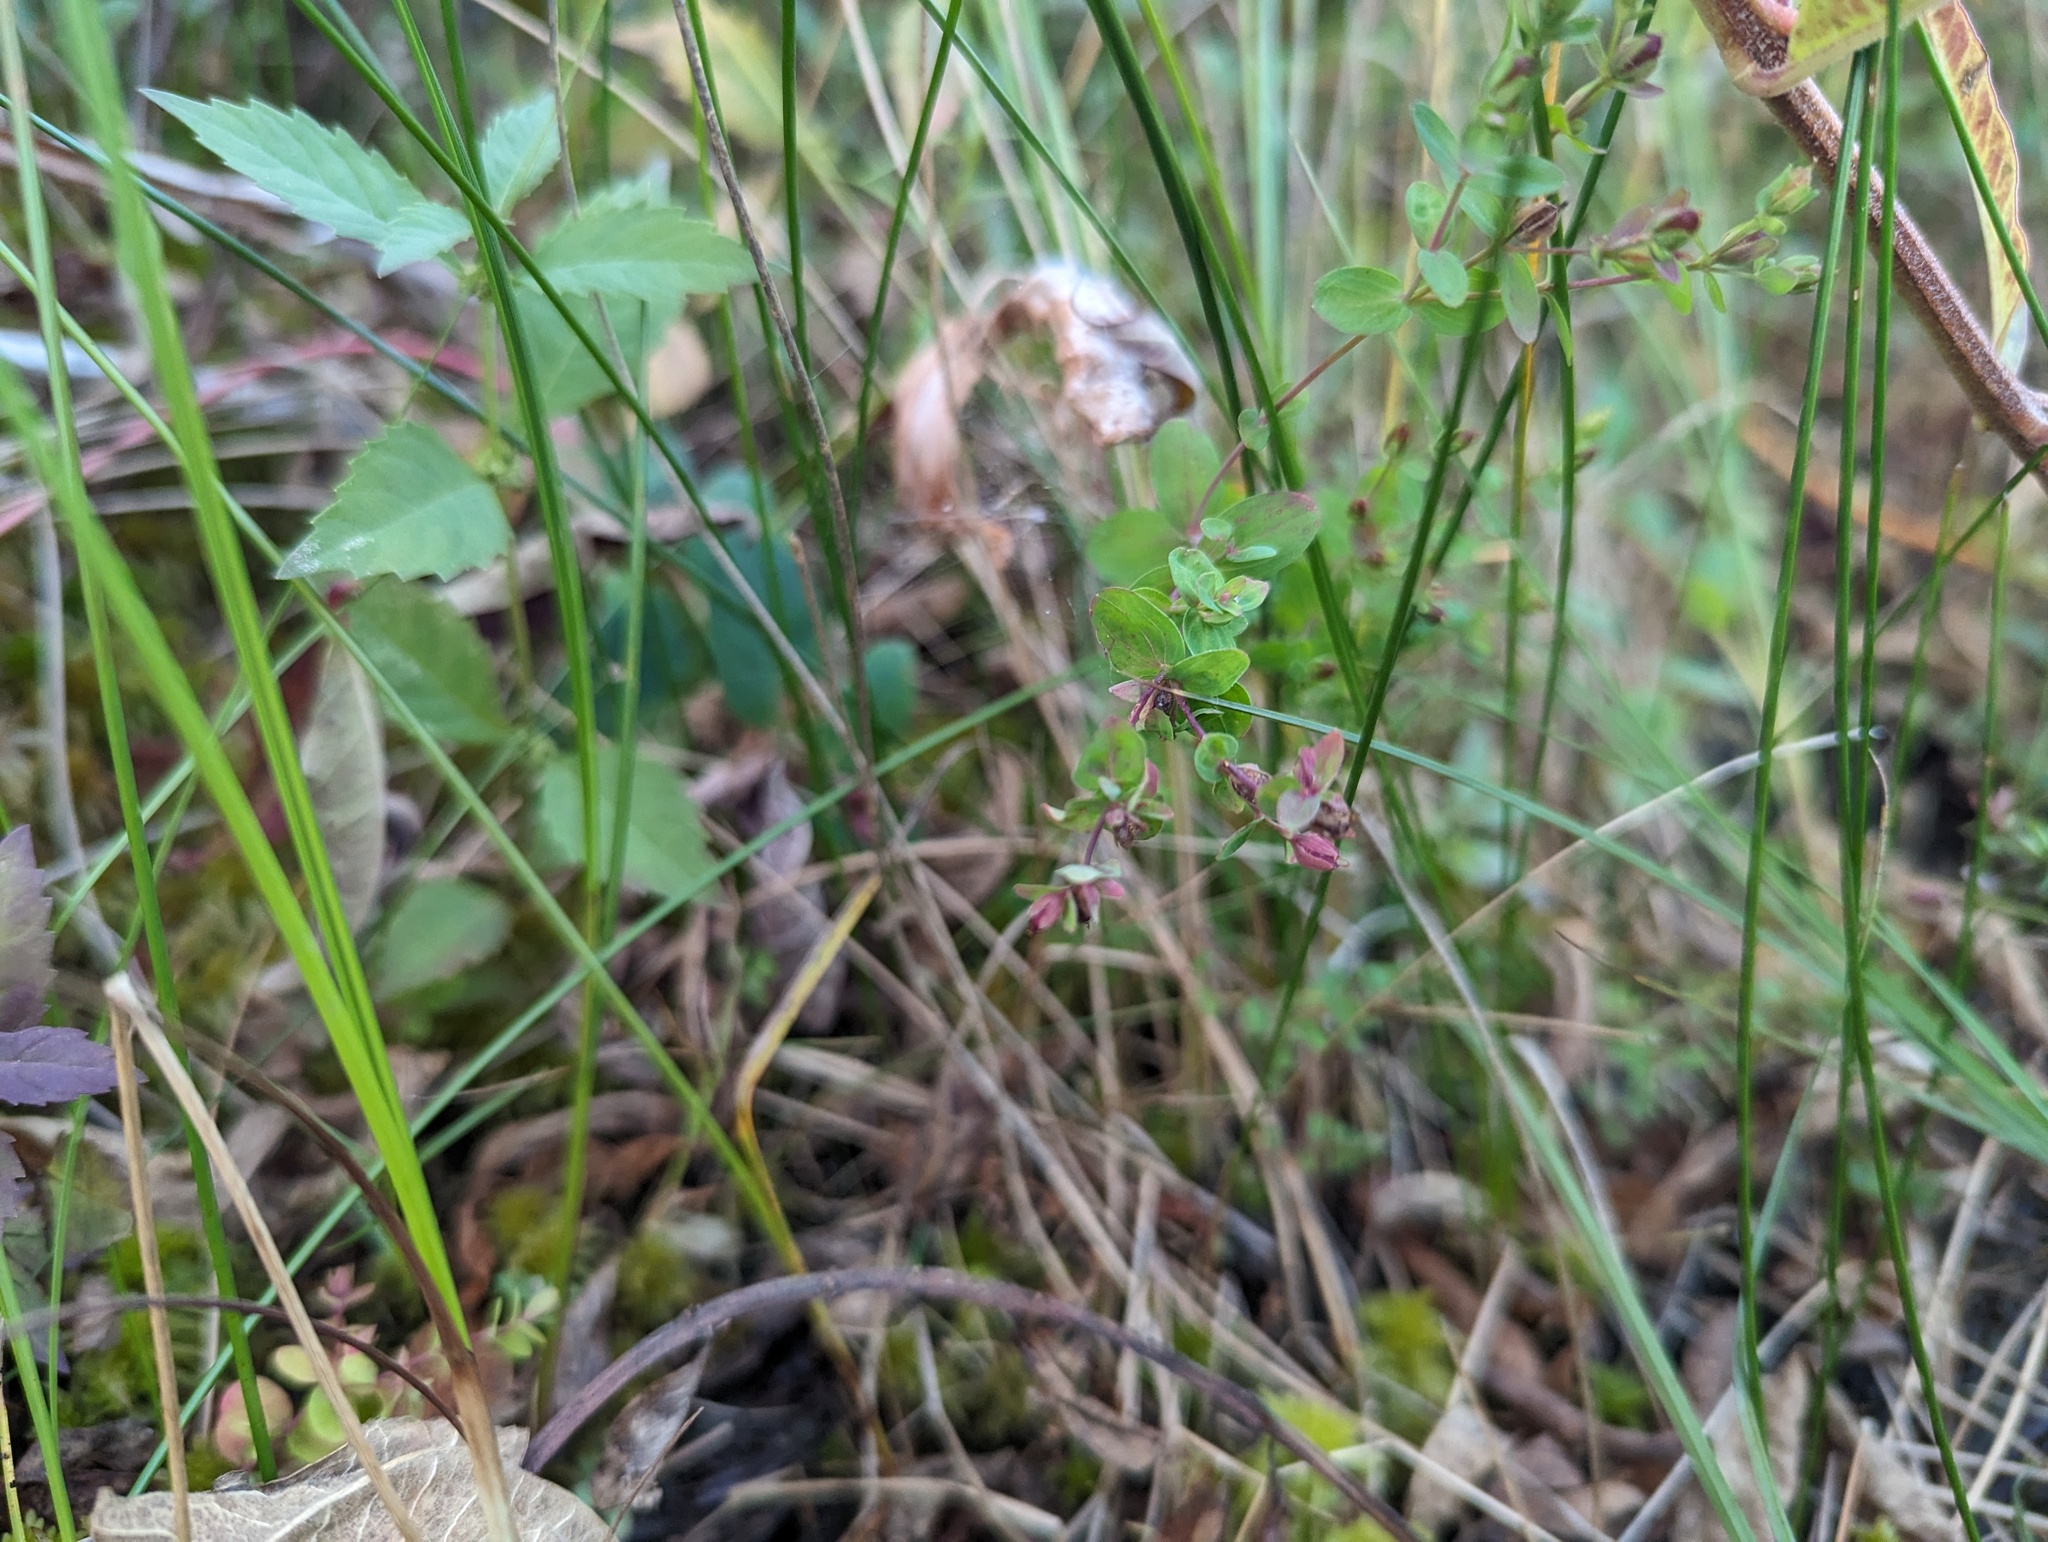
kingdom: Plantae
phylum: Tracheophyta
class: Magnoliopsida
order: Malpighiales
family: Hypericaceae
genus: Hypericum
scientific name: Hypericum boreale
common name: Northern bog st. john's-wort
